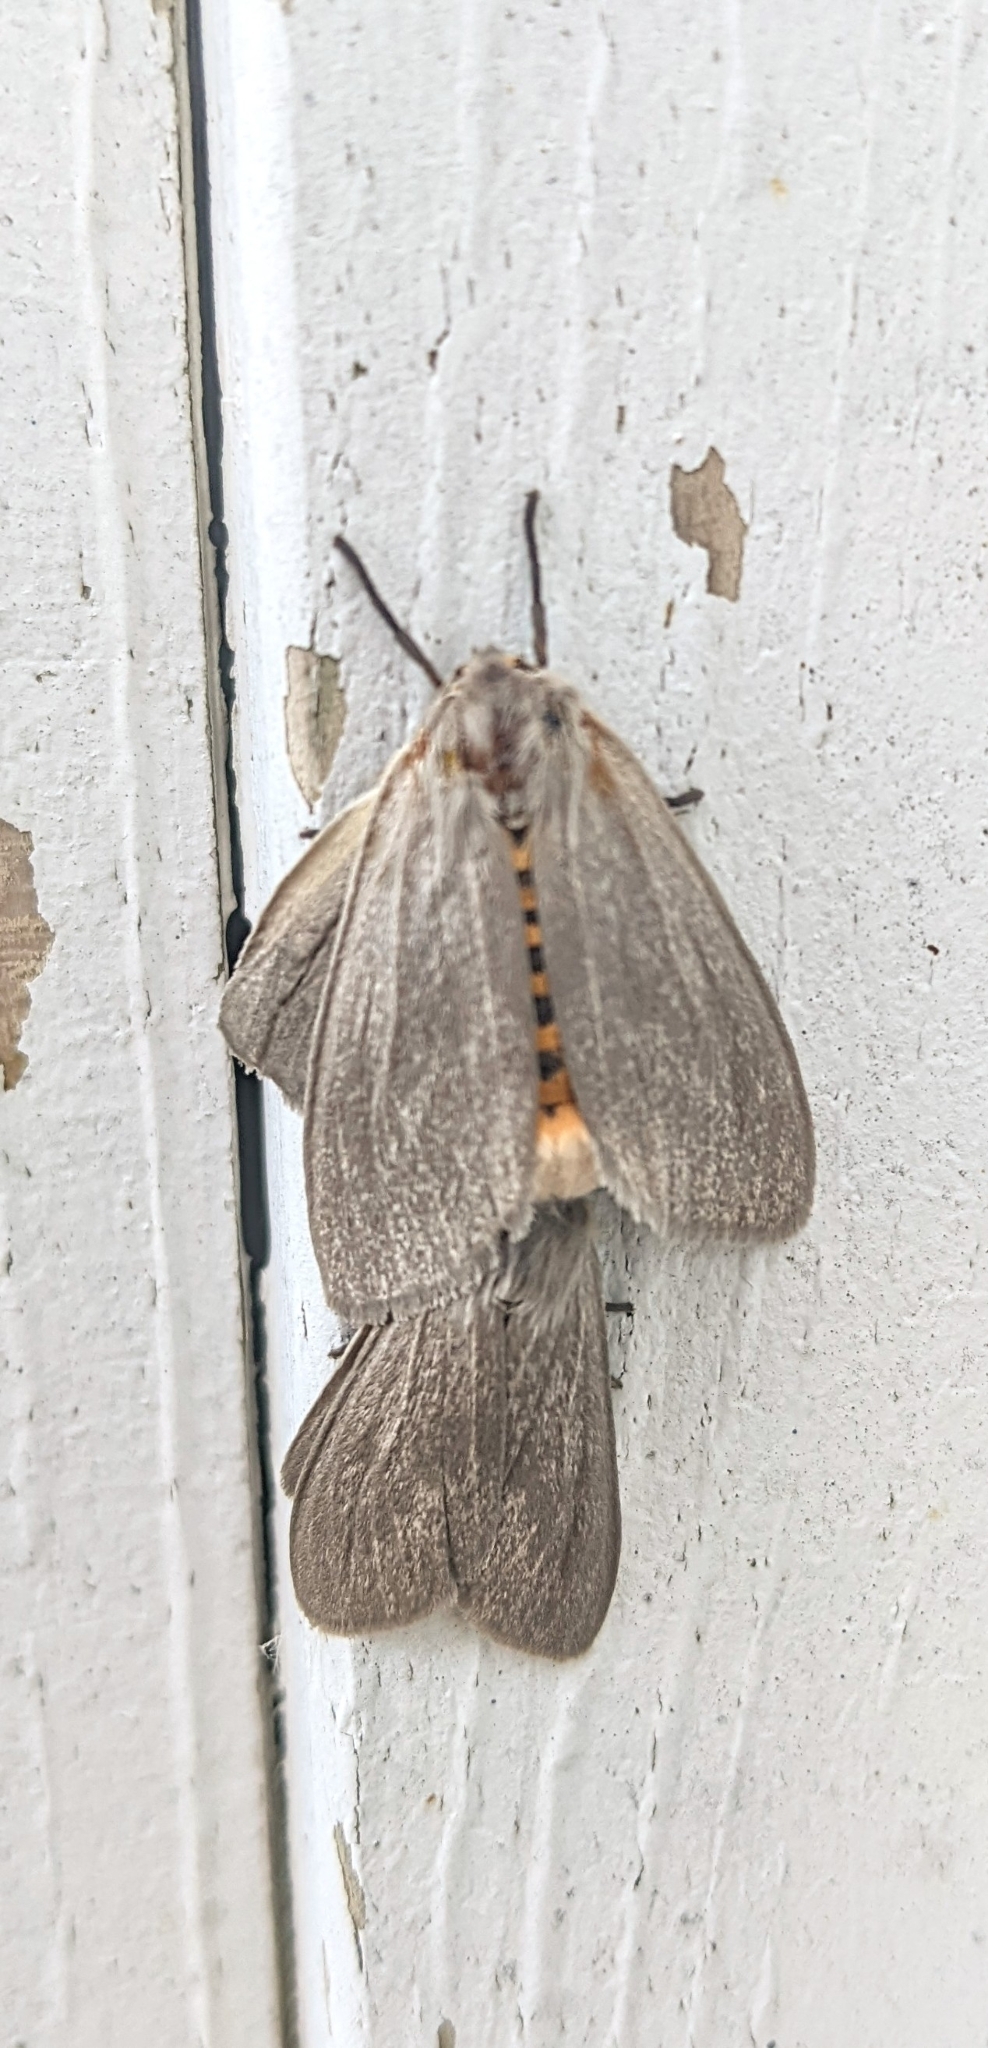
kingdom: Animalia
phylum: Arthropoda
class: Insecta
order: Lepidoptera
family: Erebidae
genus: Euchaetes
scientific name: Euchaetes egle
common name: Milkweed tussock moth
